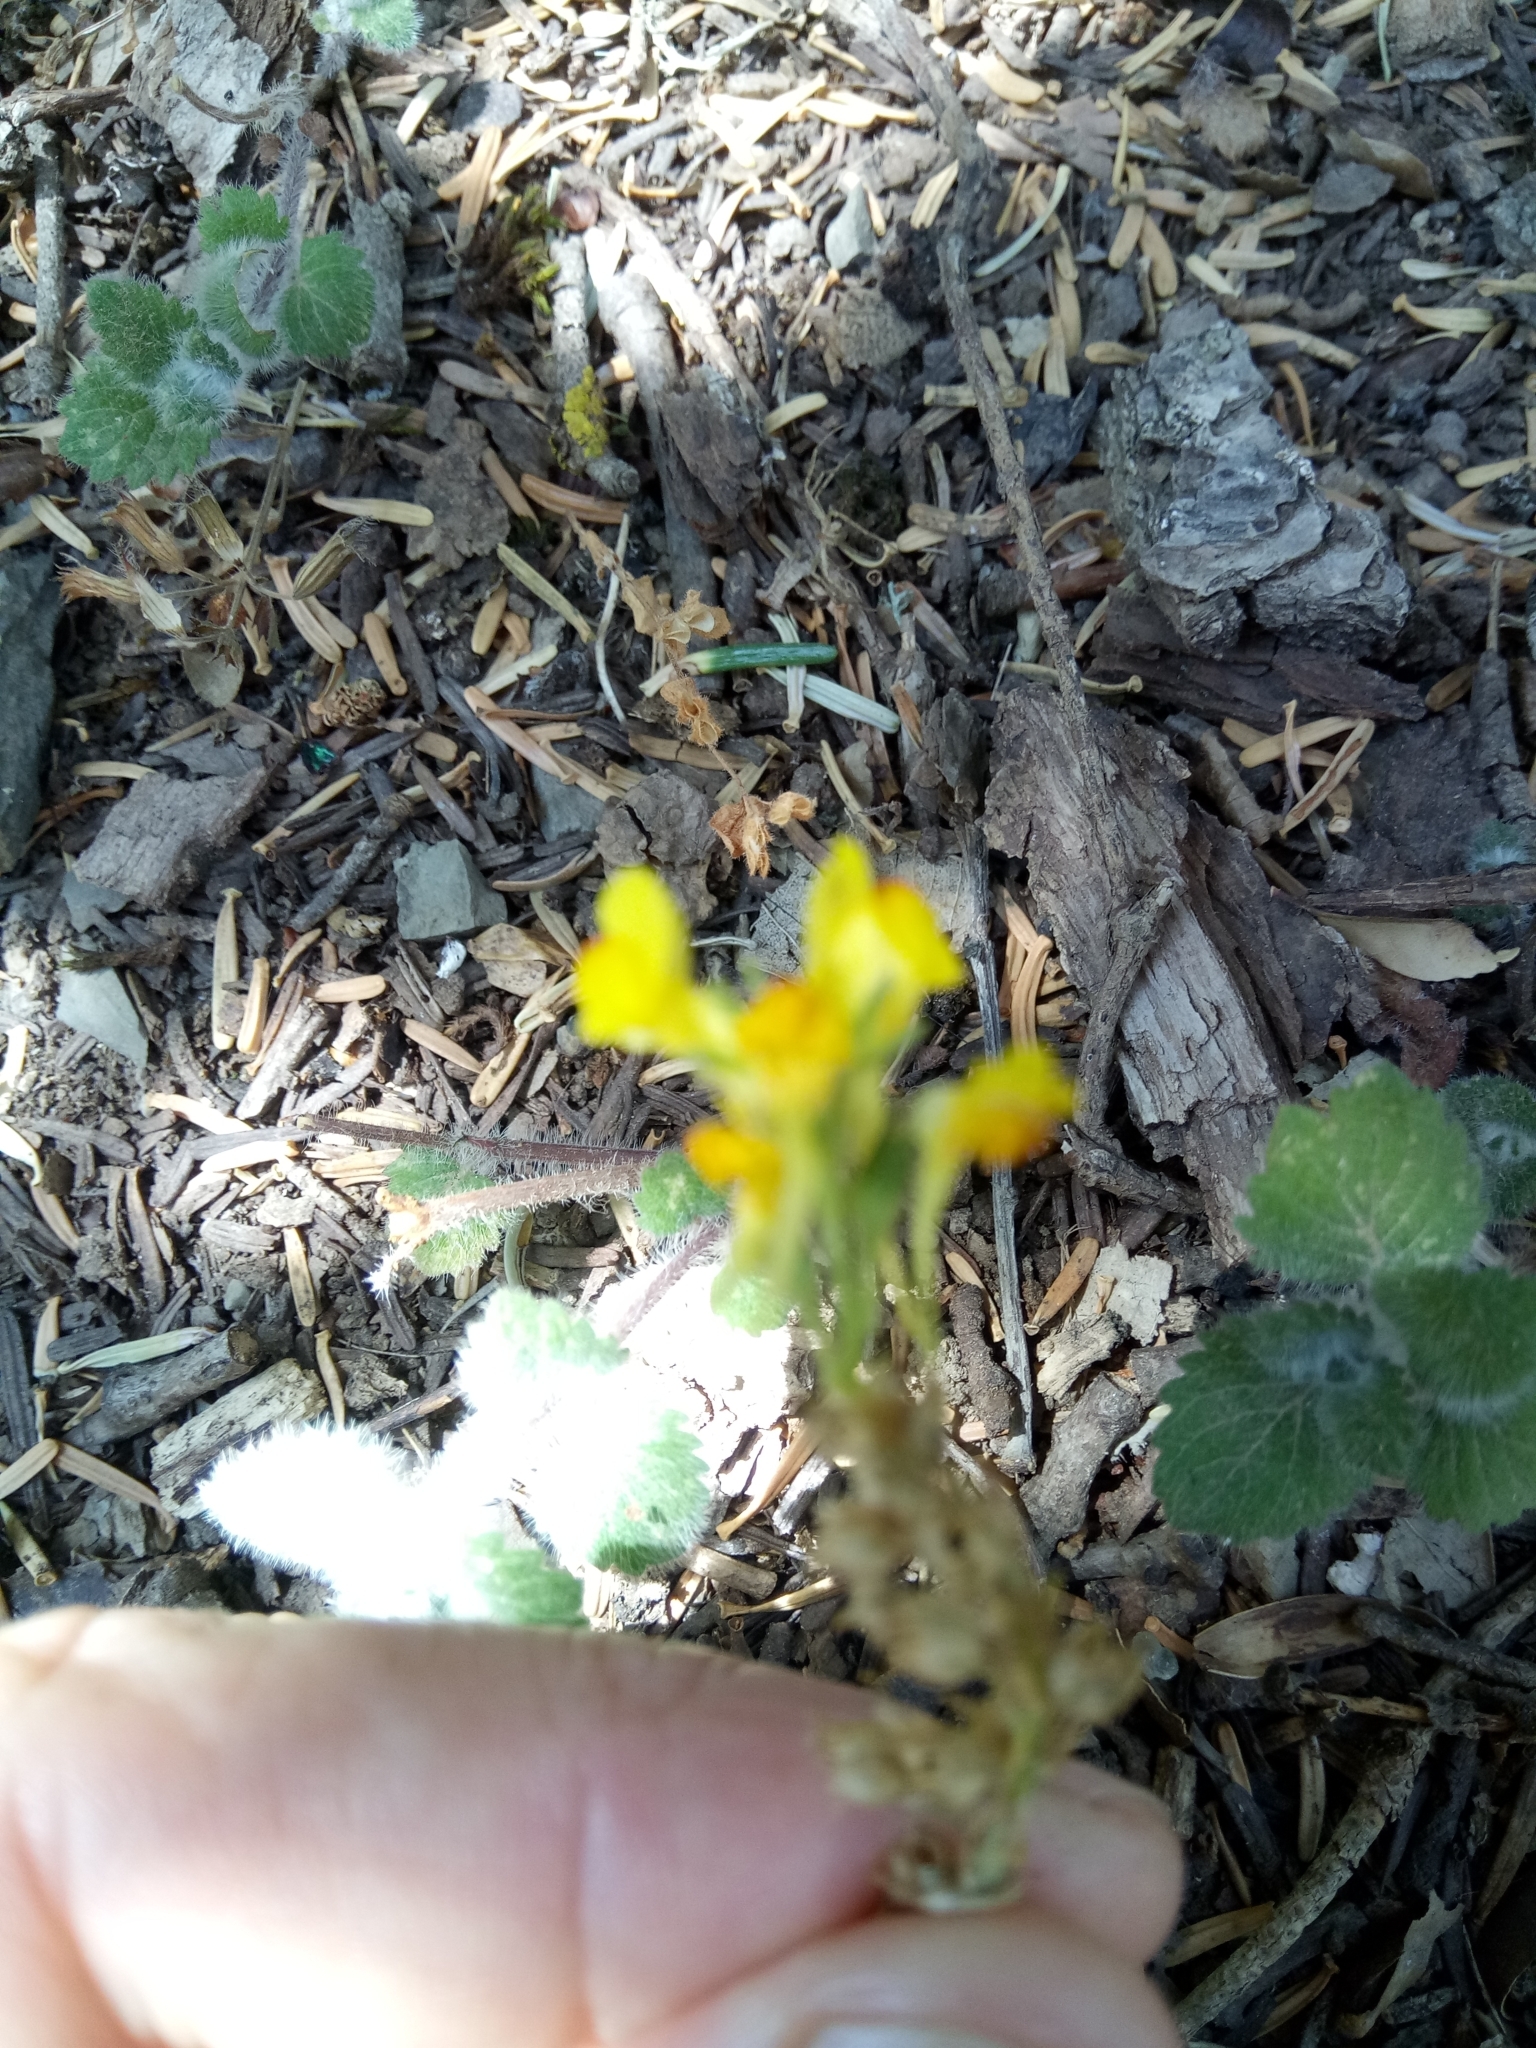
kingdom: Plantae
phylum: Tracheophyta
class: Magnoliopsida
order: Lamiales
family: Plantaginaceae
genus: Linaria
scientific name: Linaria pinifolia
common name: Pineneedle toadflax
